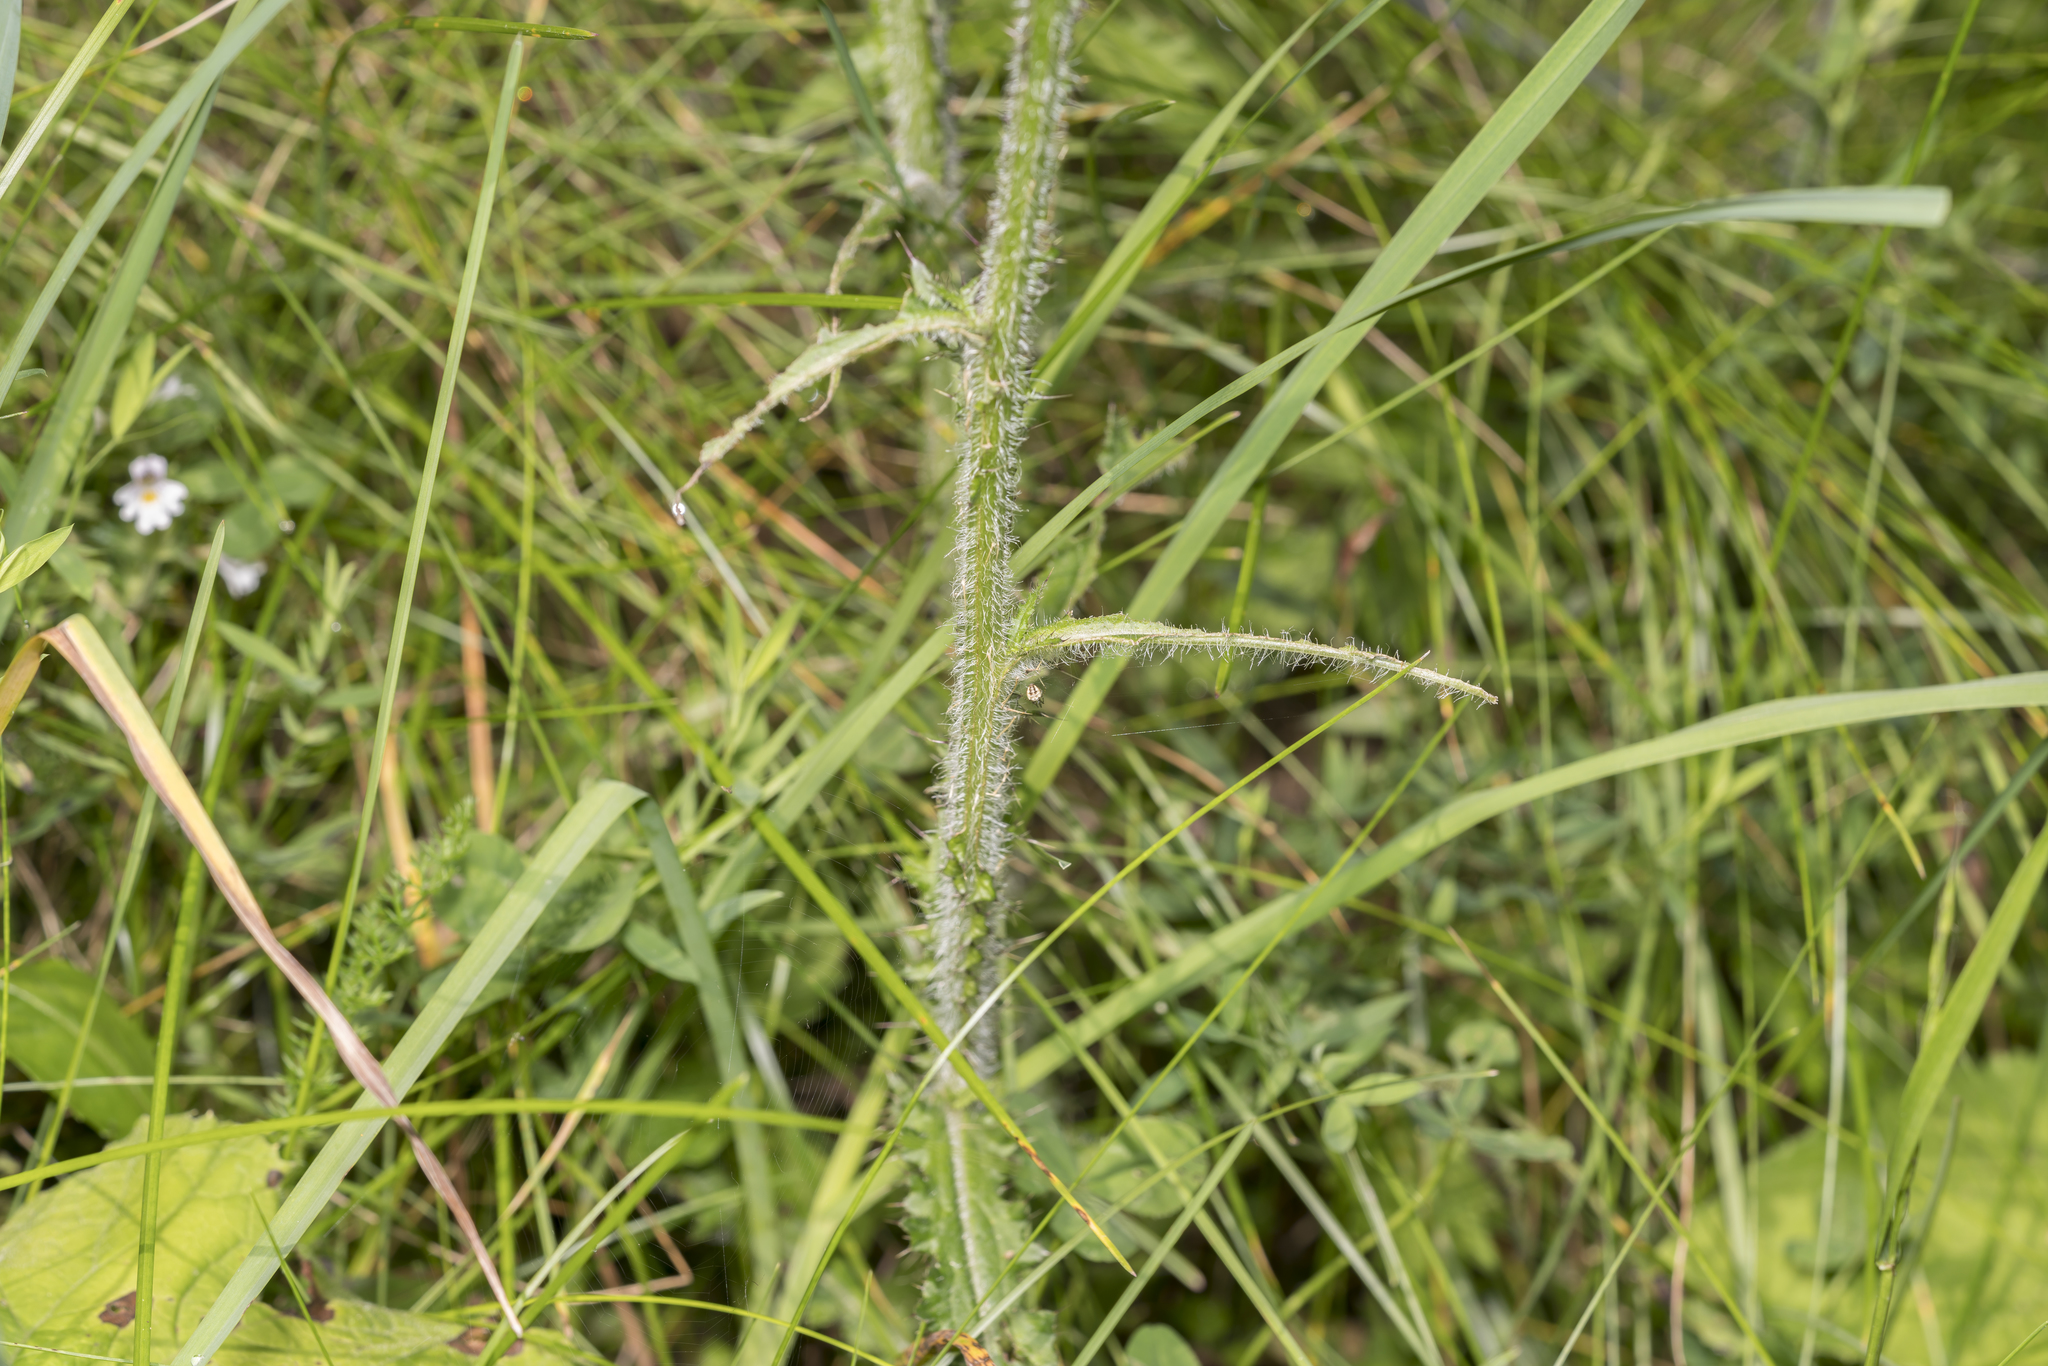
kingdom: Plantae
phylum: Tracheophyta
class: Magnoliopsida
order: Asterales
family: Asteraceae
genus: Cirsium
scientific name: Cirsium palustre
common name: Marsh thistle
